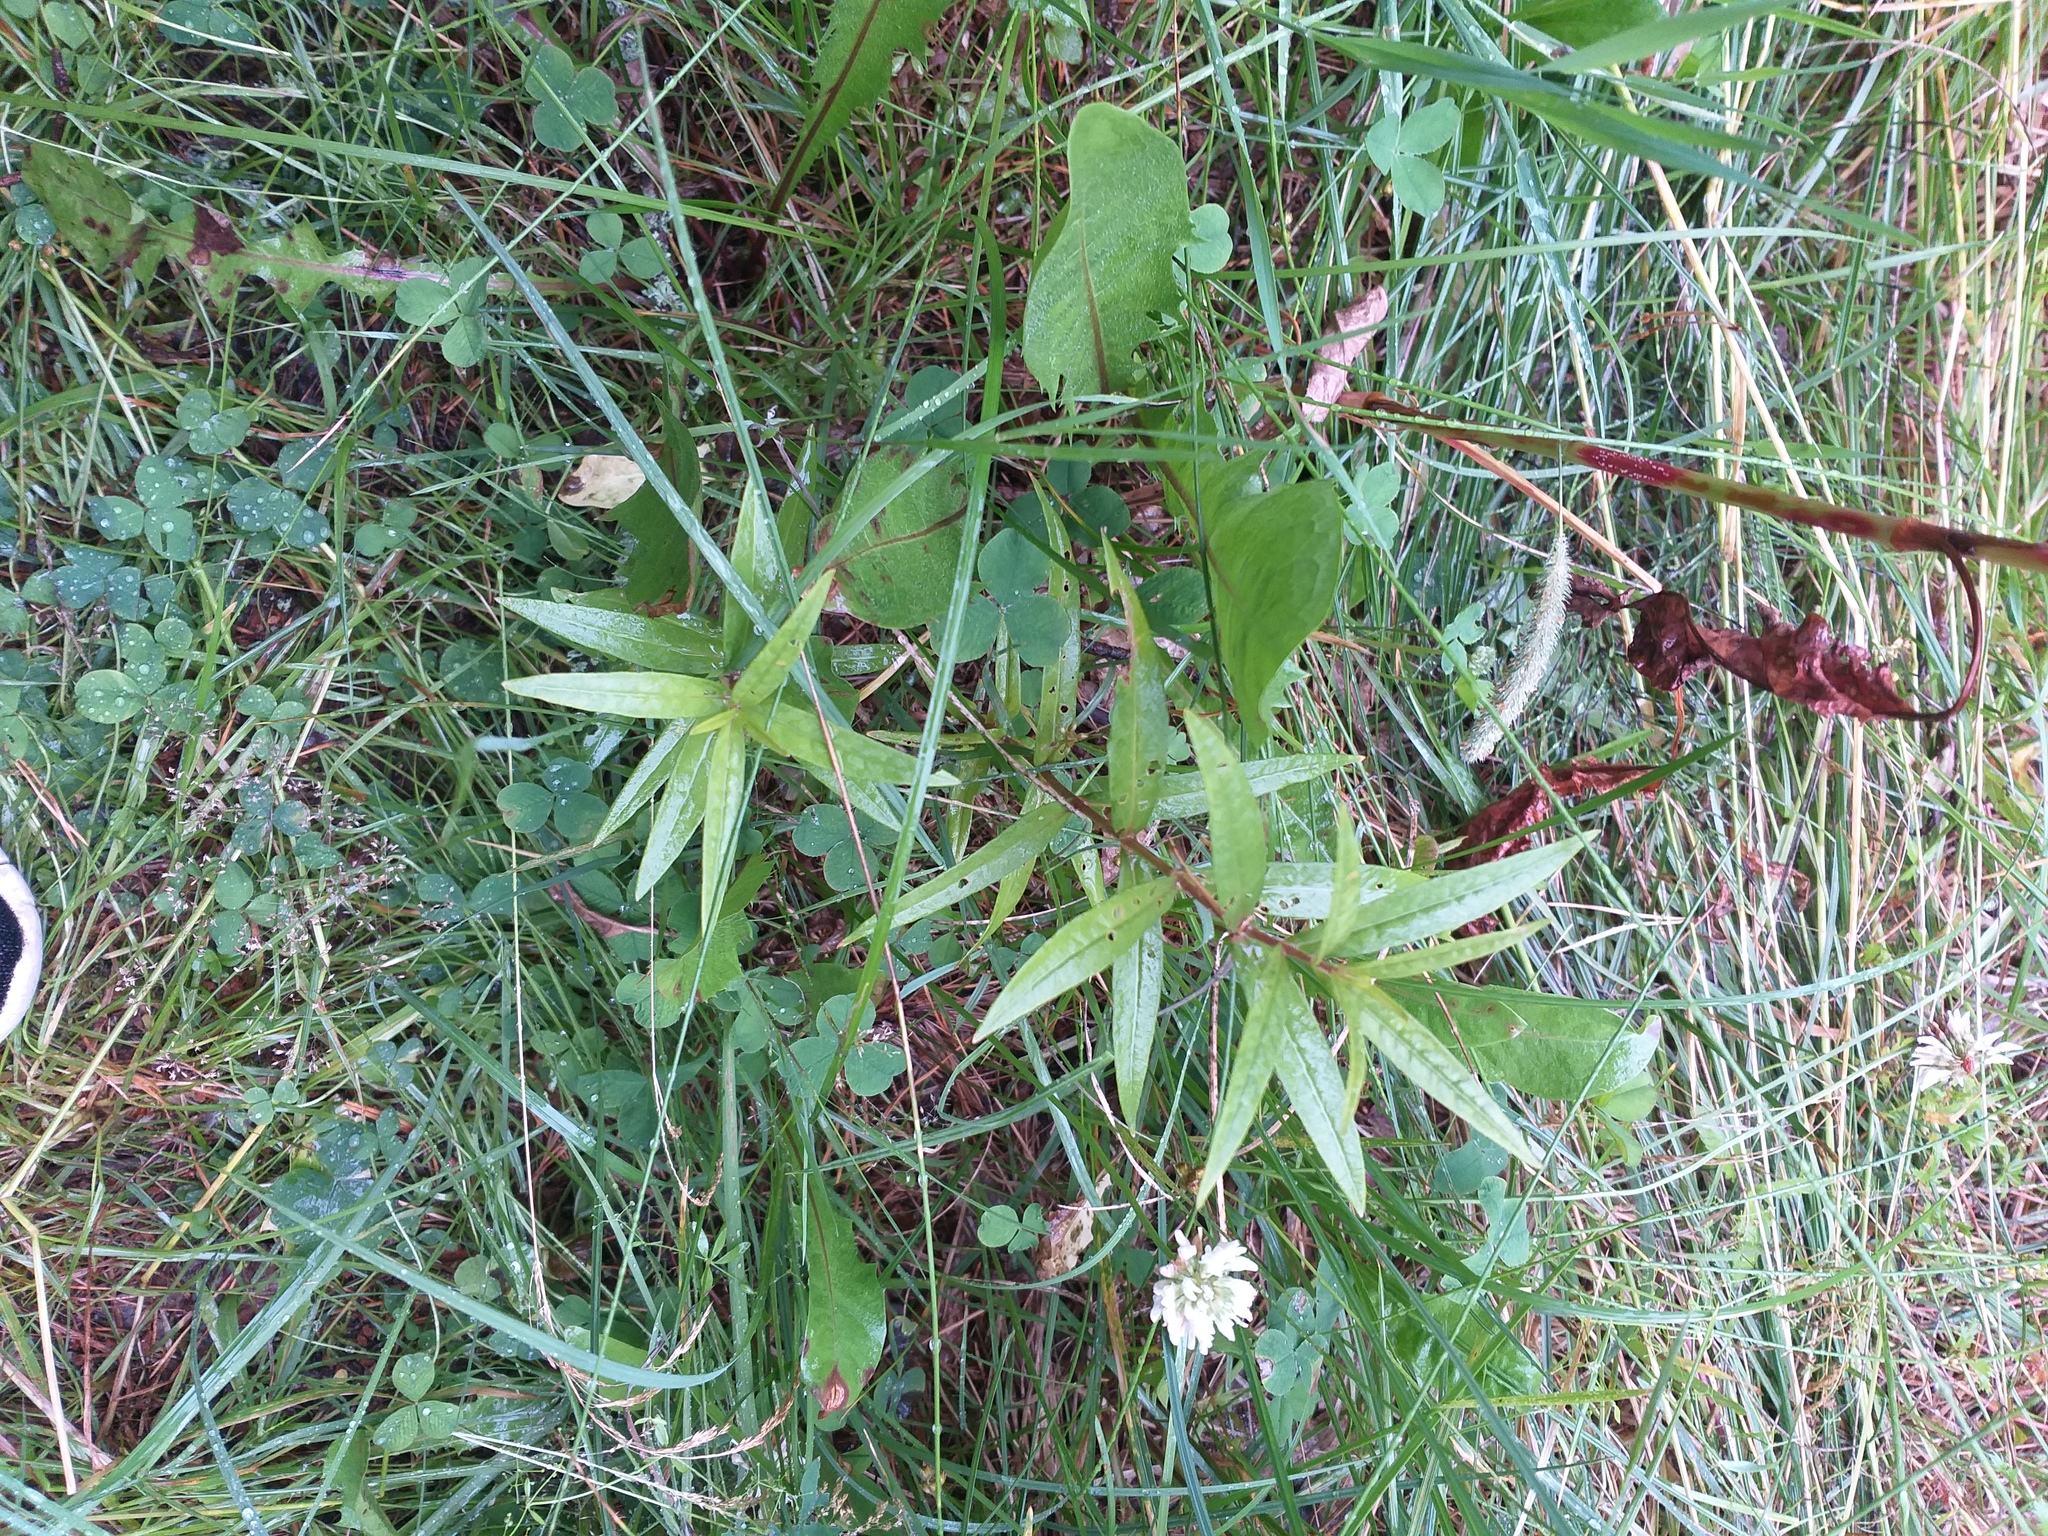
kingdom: Plantae
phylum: Tracheophyta
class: Magnoliopsida
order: Ericales
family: Primulaceae
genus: Lysimachia
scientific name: Lysimachia thyrsiflora
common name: Tufted loosestrife
